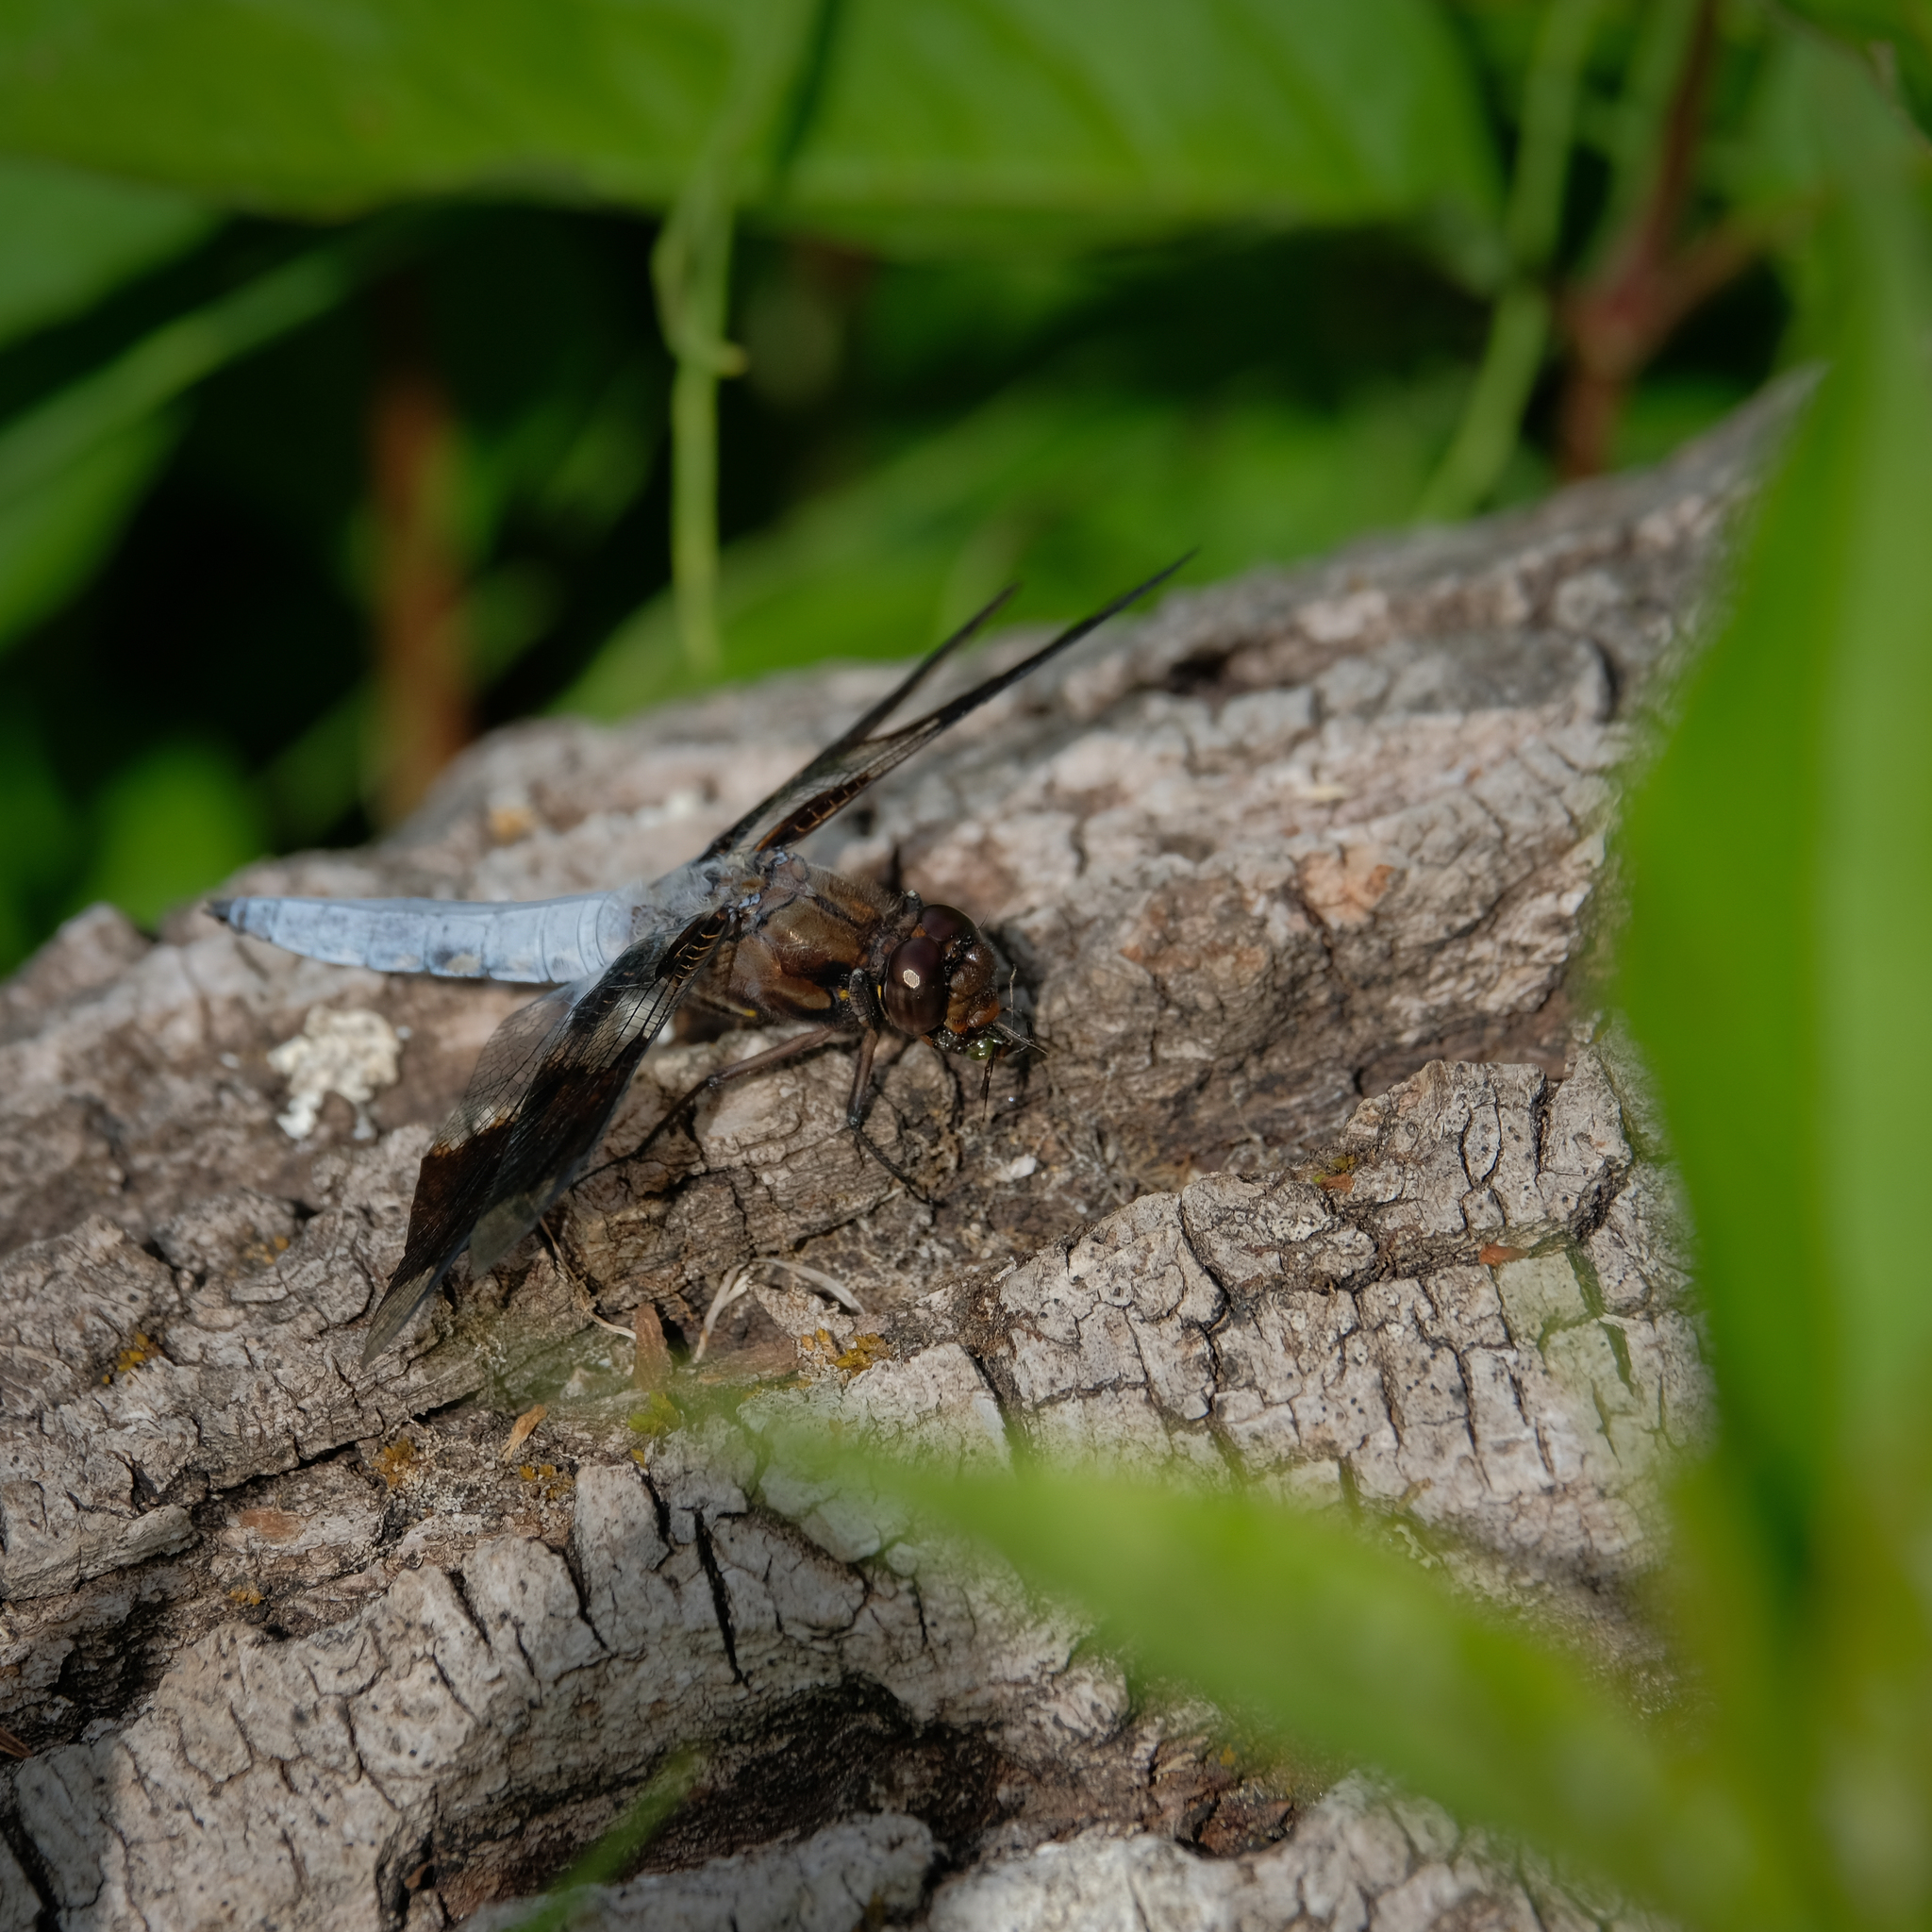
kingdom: Animalia
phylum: Arthropoda
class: Insecta
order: Odonata
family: Libellulidae
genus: Plathemis
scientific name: Plathemis lydia
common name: Common whitetail
